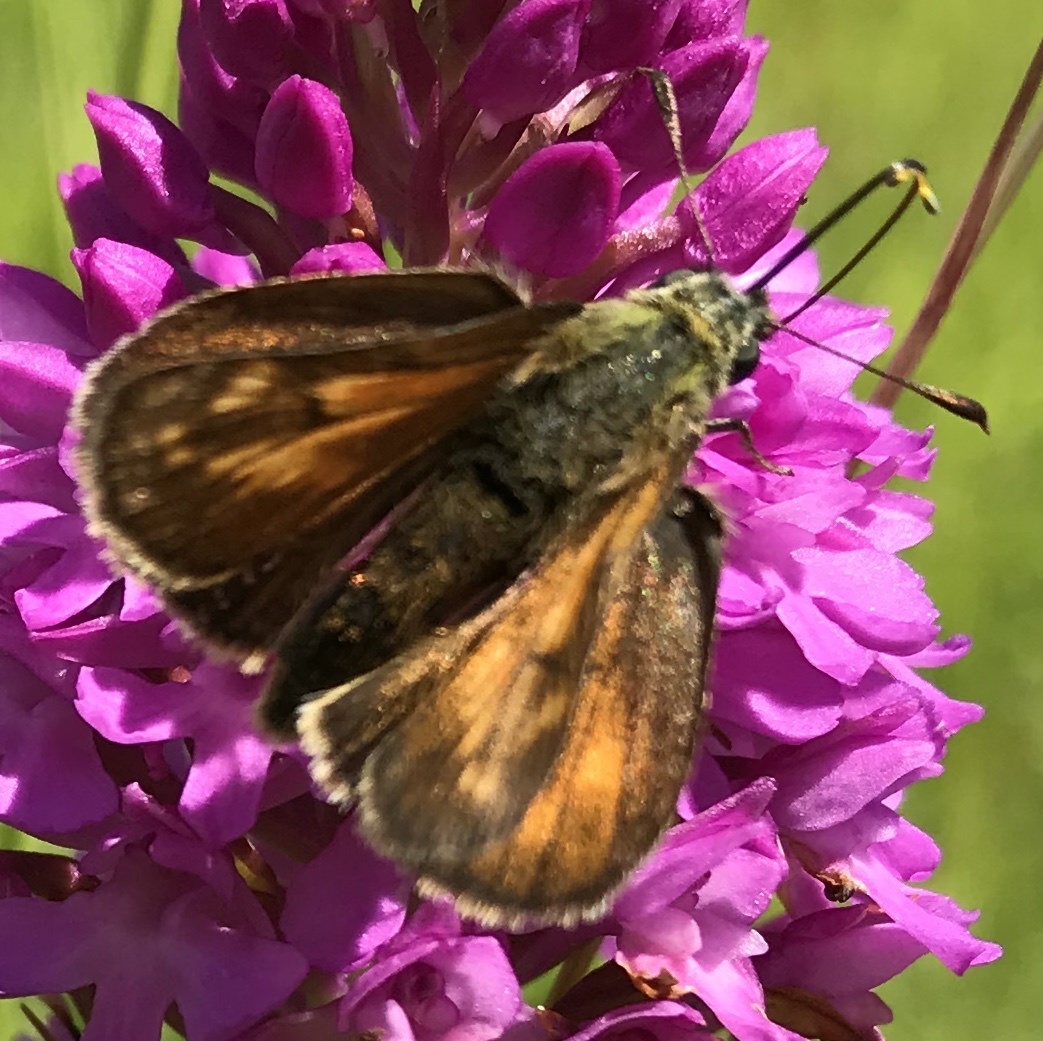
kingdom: Animalia
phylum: Arthropoda
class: Insecta
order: Lepidoptera
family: Hesperiidae
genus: Ochlodes
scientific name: Ochlodes venata
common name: Large skipper
